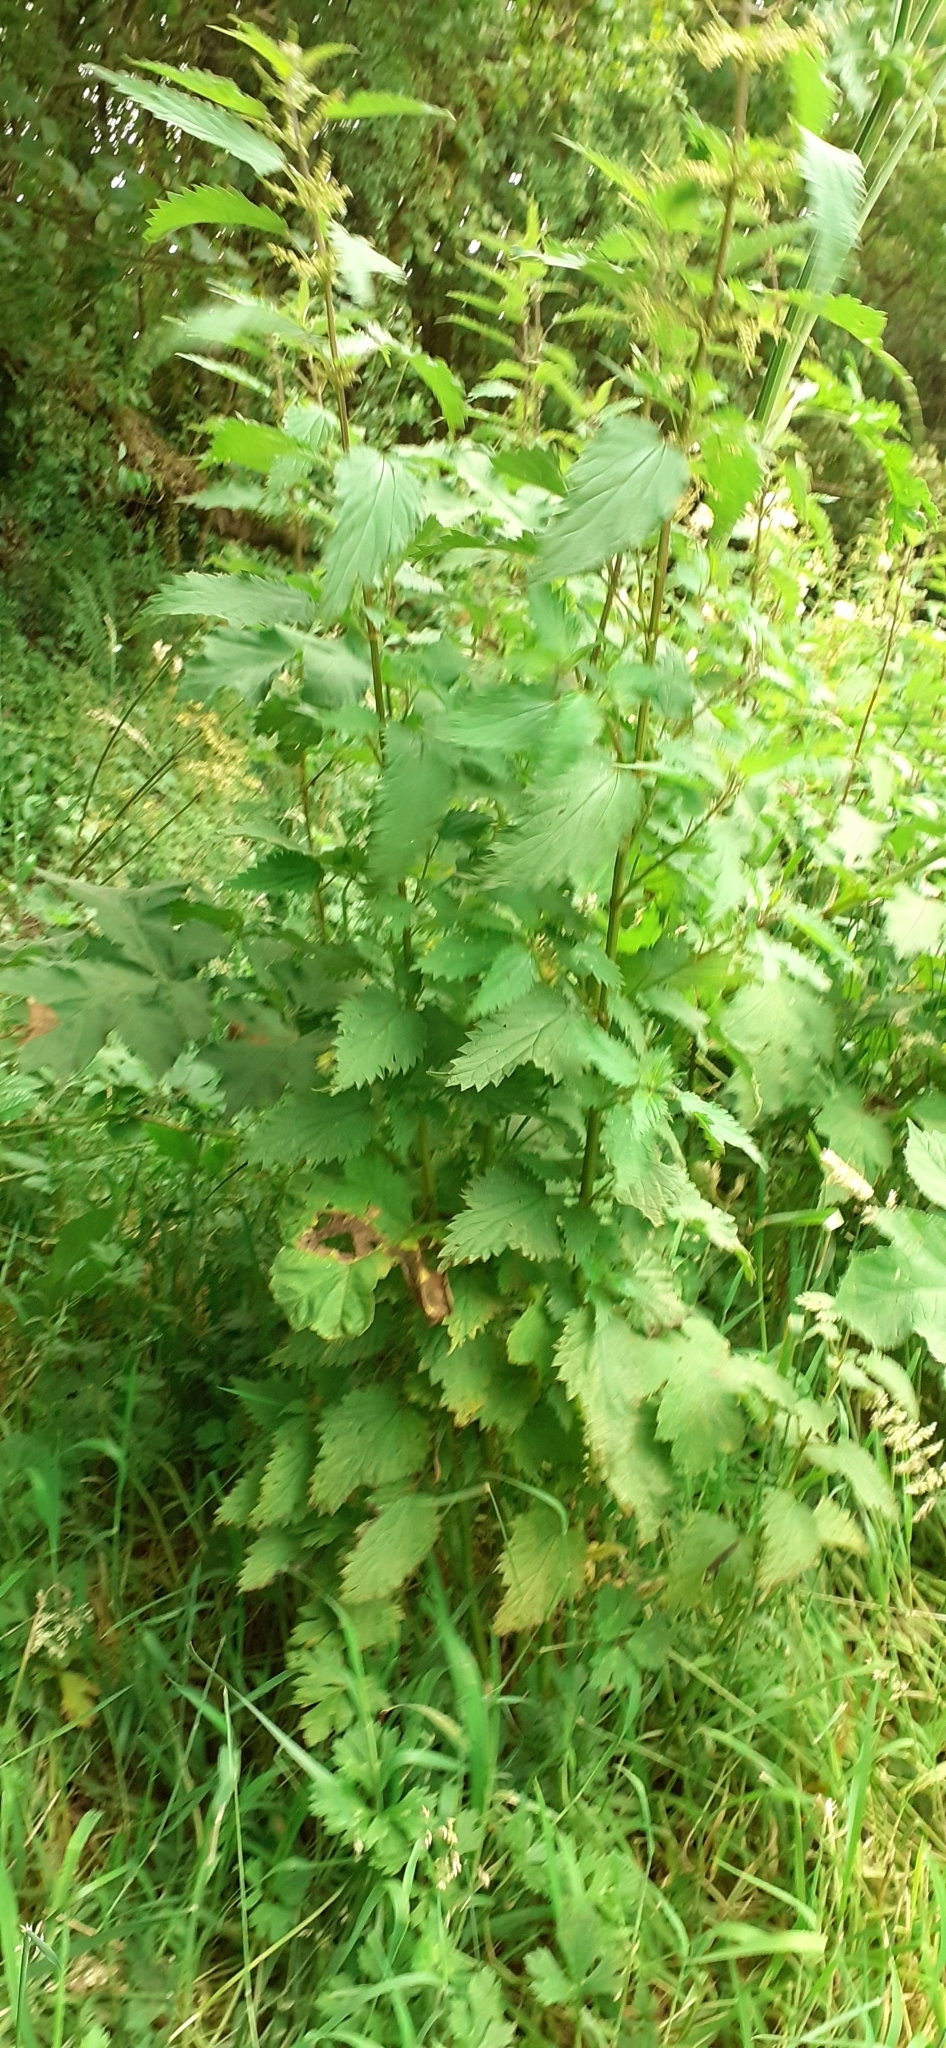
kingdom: Plantae
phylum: Tracheophyta
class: Magnoliopsida
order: Rosales
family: Urticaceae
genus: Urtica
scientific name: Urtica dioica
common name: Common nettle
